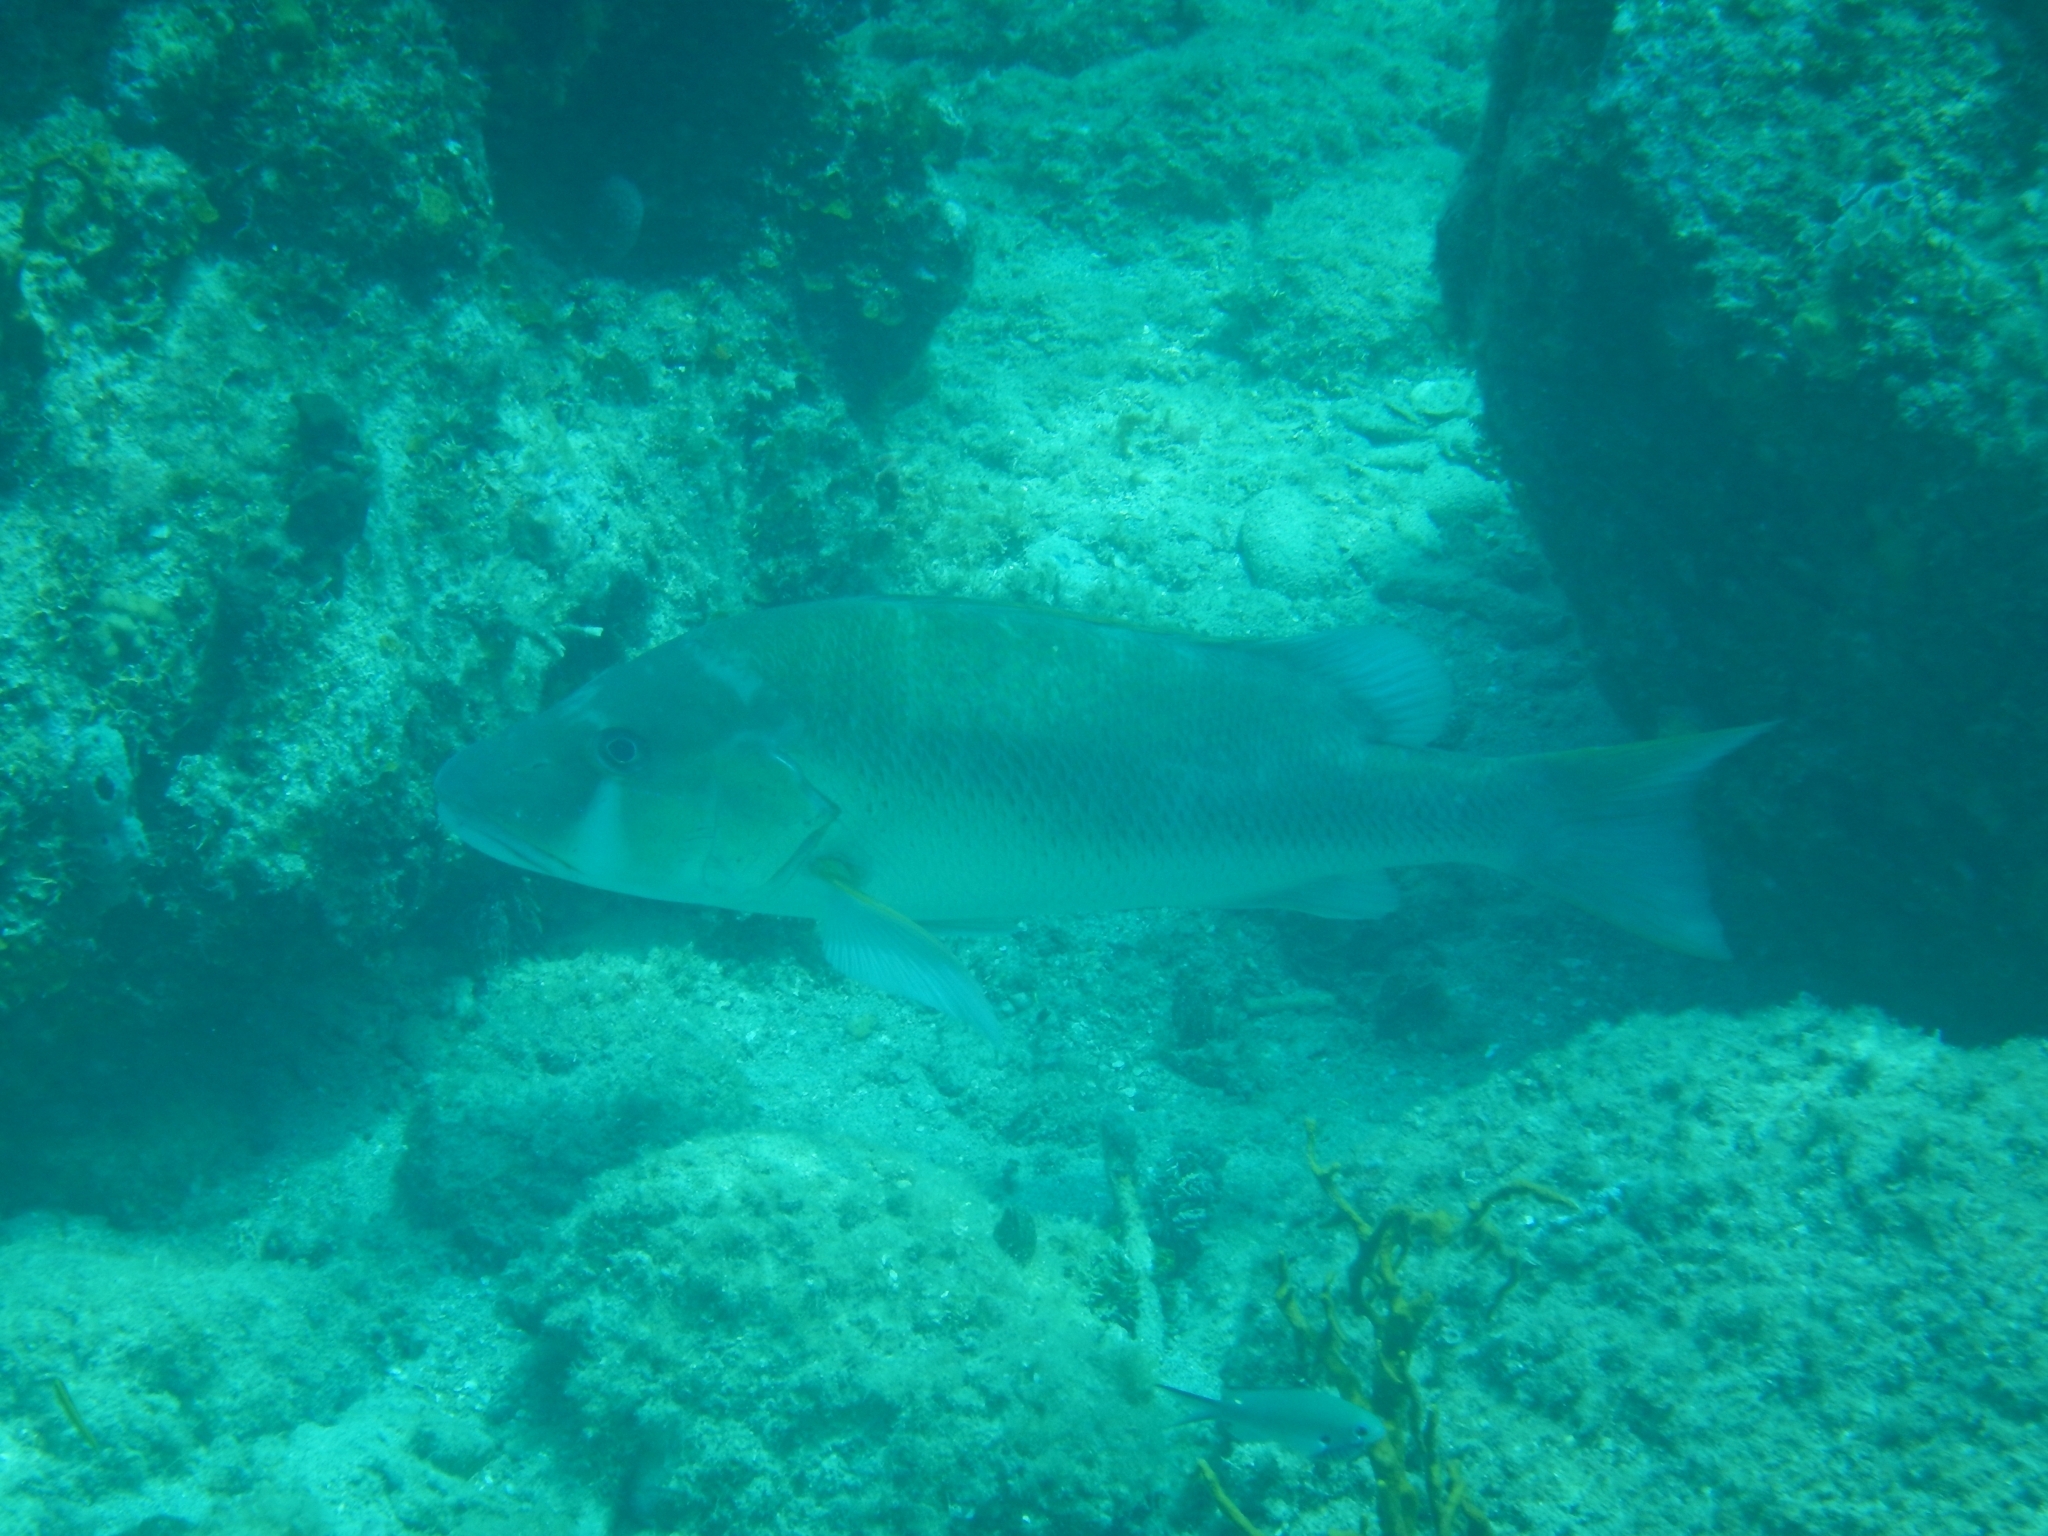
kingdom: Animalia
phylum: Chordata
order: Perciformes
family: Lutjanidae
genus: Lutjanus
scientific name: Lutjanus jocu
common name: Dog snapper
